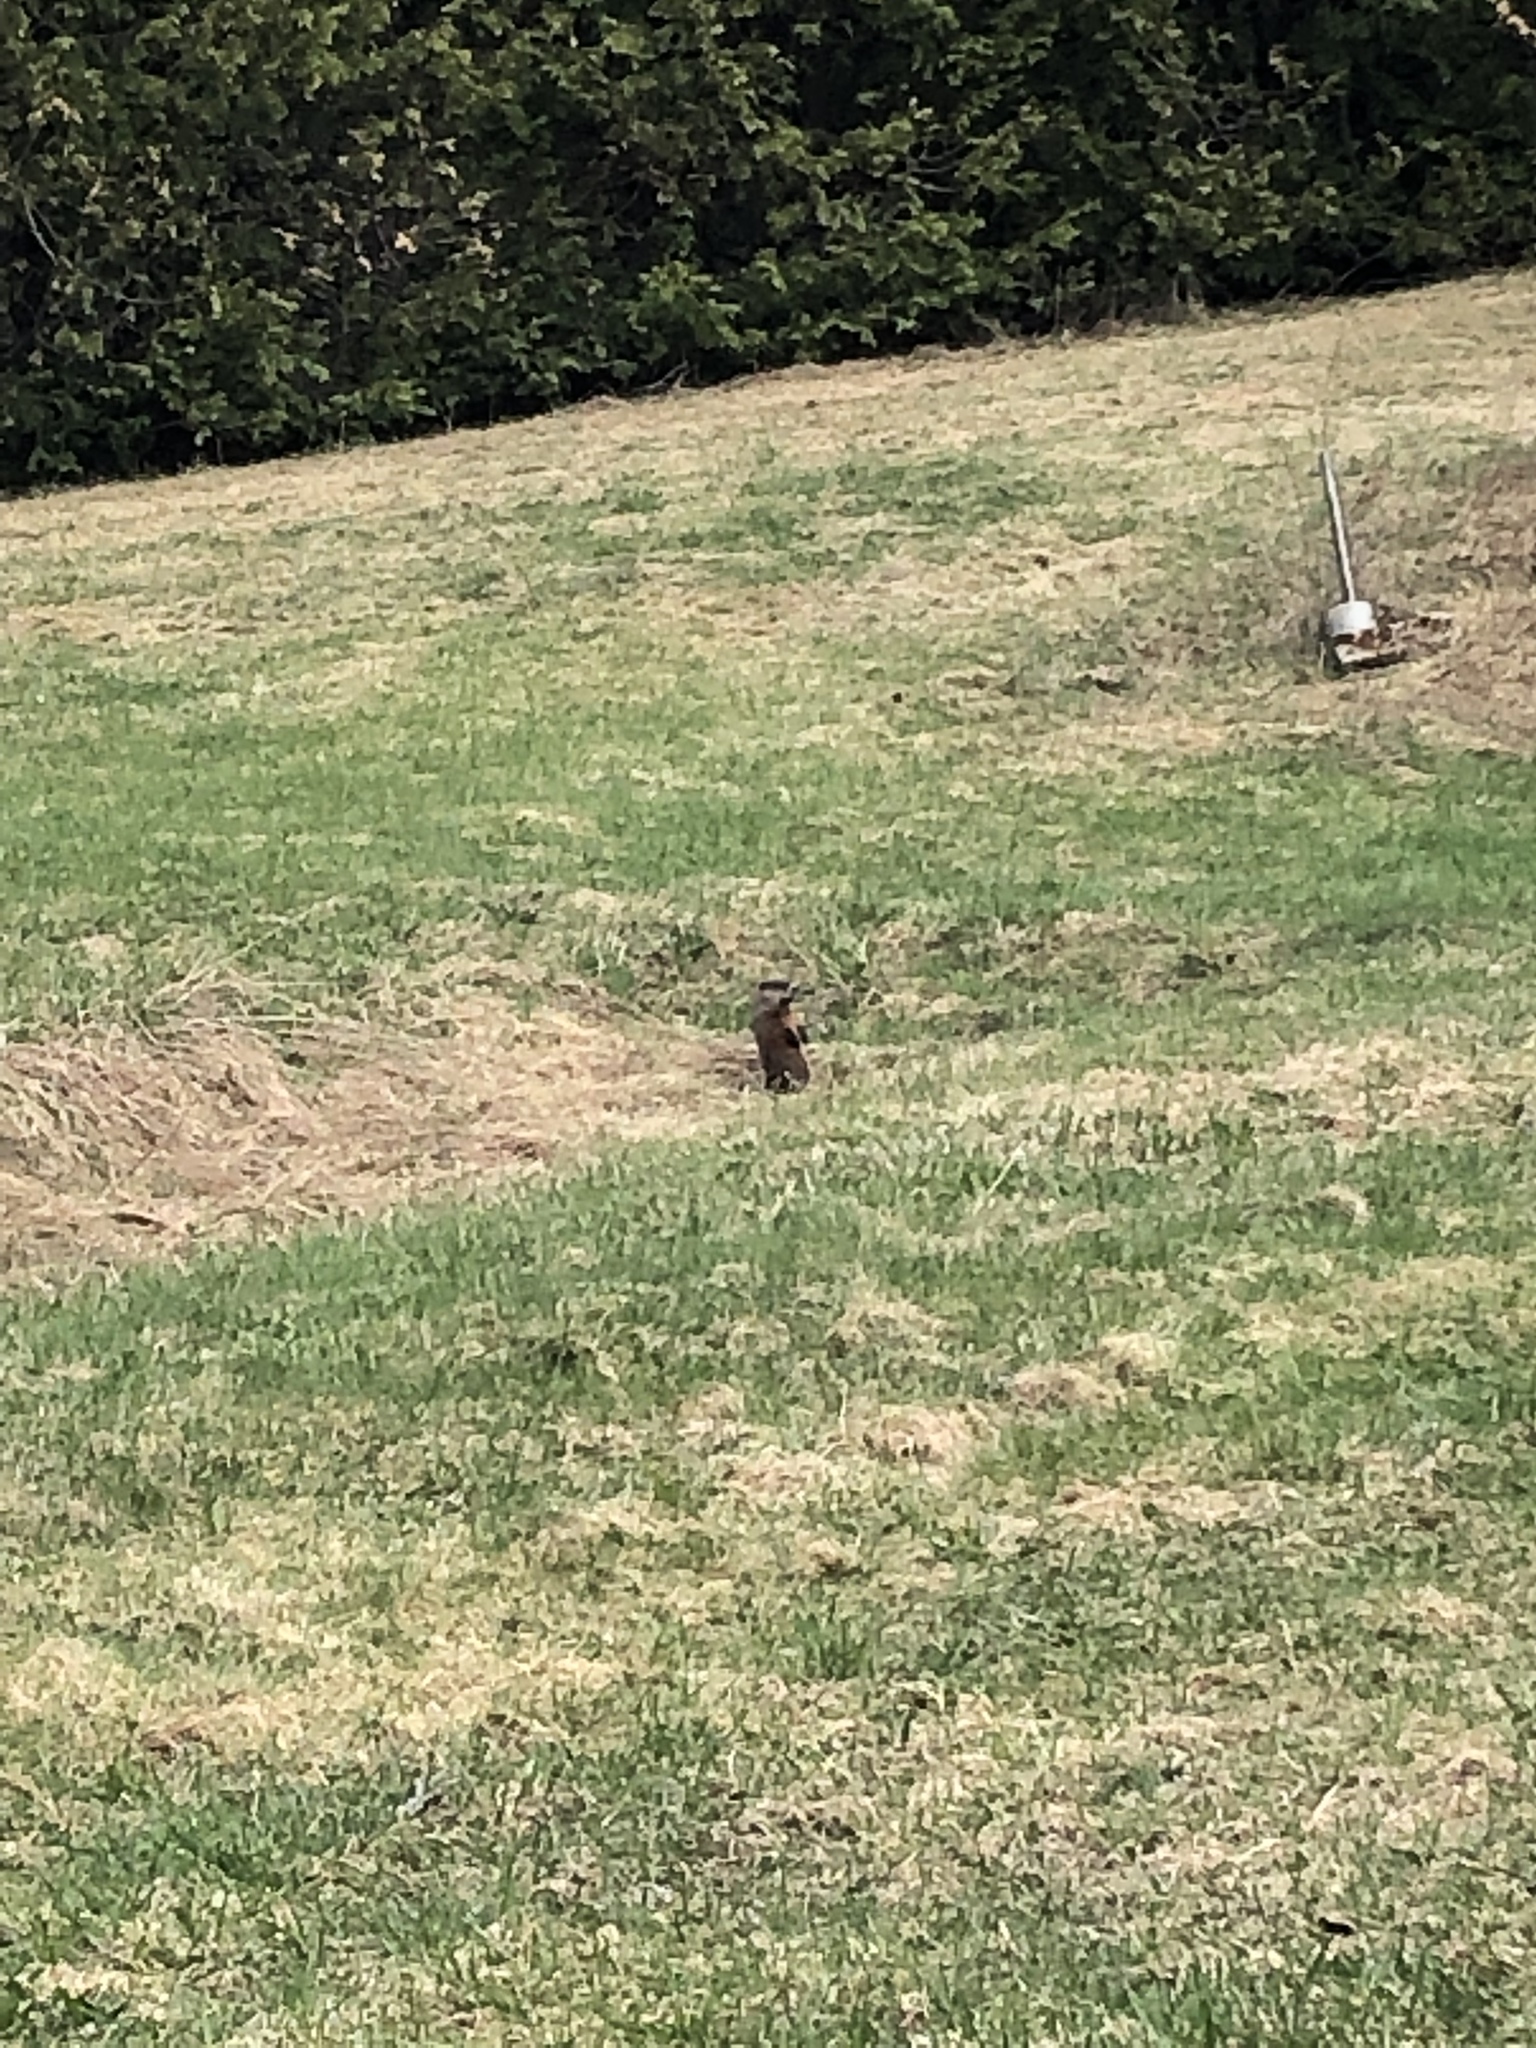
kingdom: Animalia
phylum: Chordata
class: Mammalia
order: Rodentia
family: Sciuridae
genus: Marmota
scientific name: Marmota monax
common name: Groundhog
